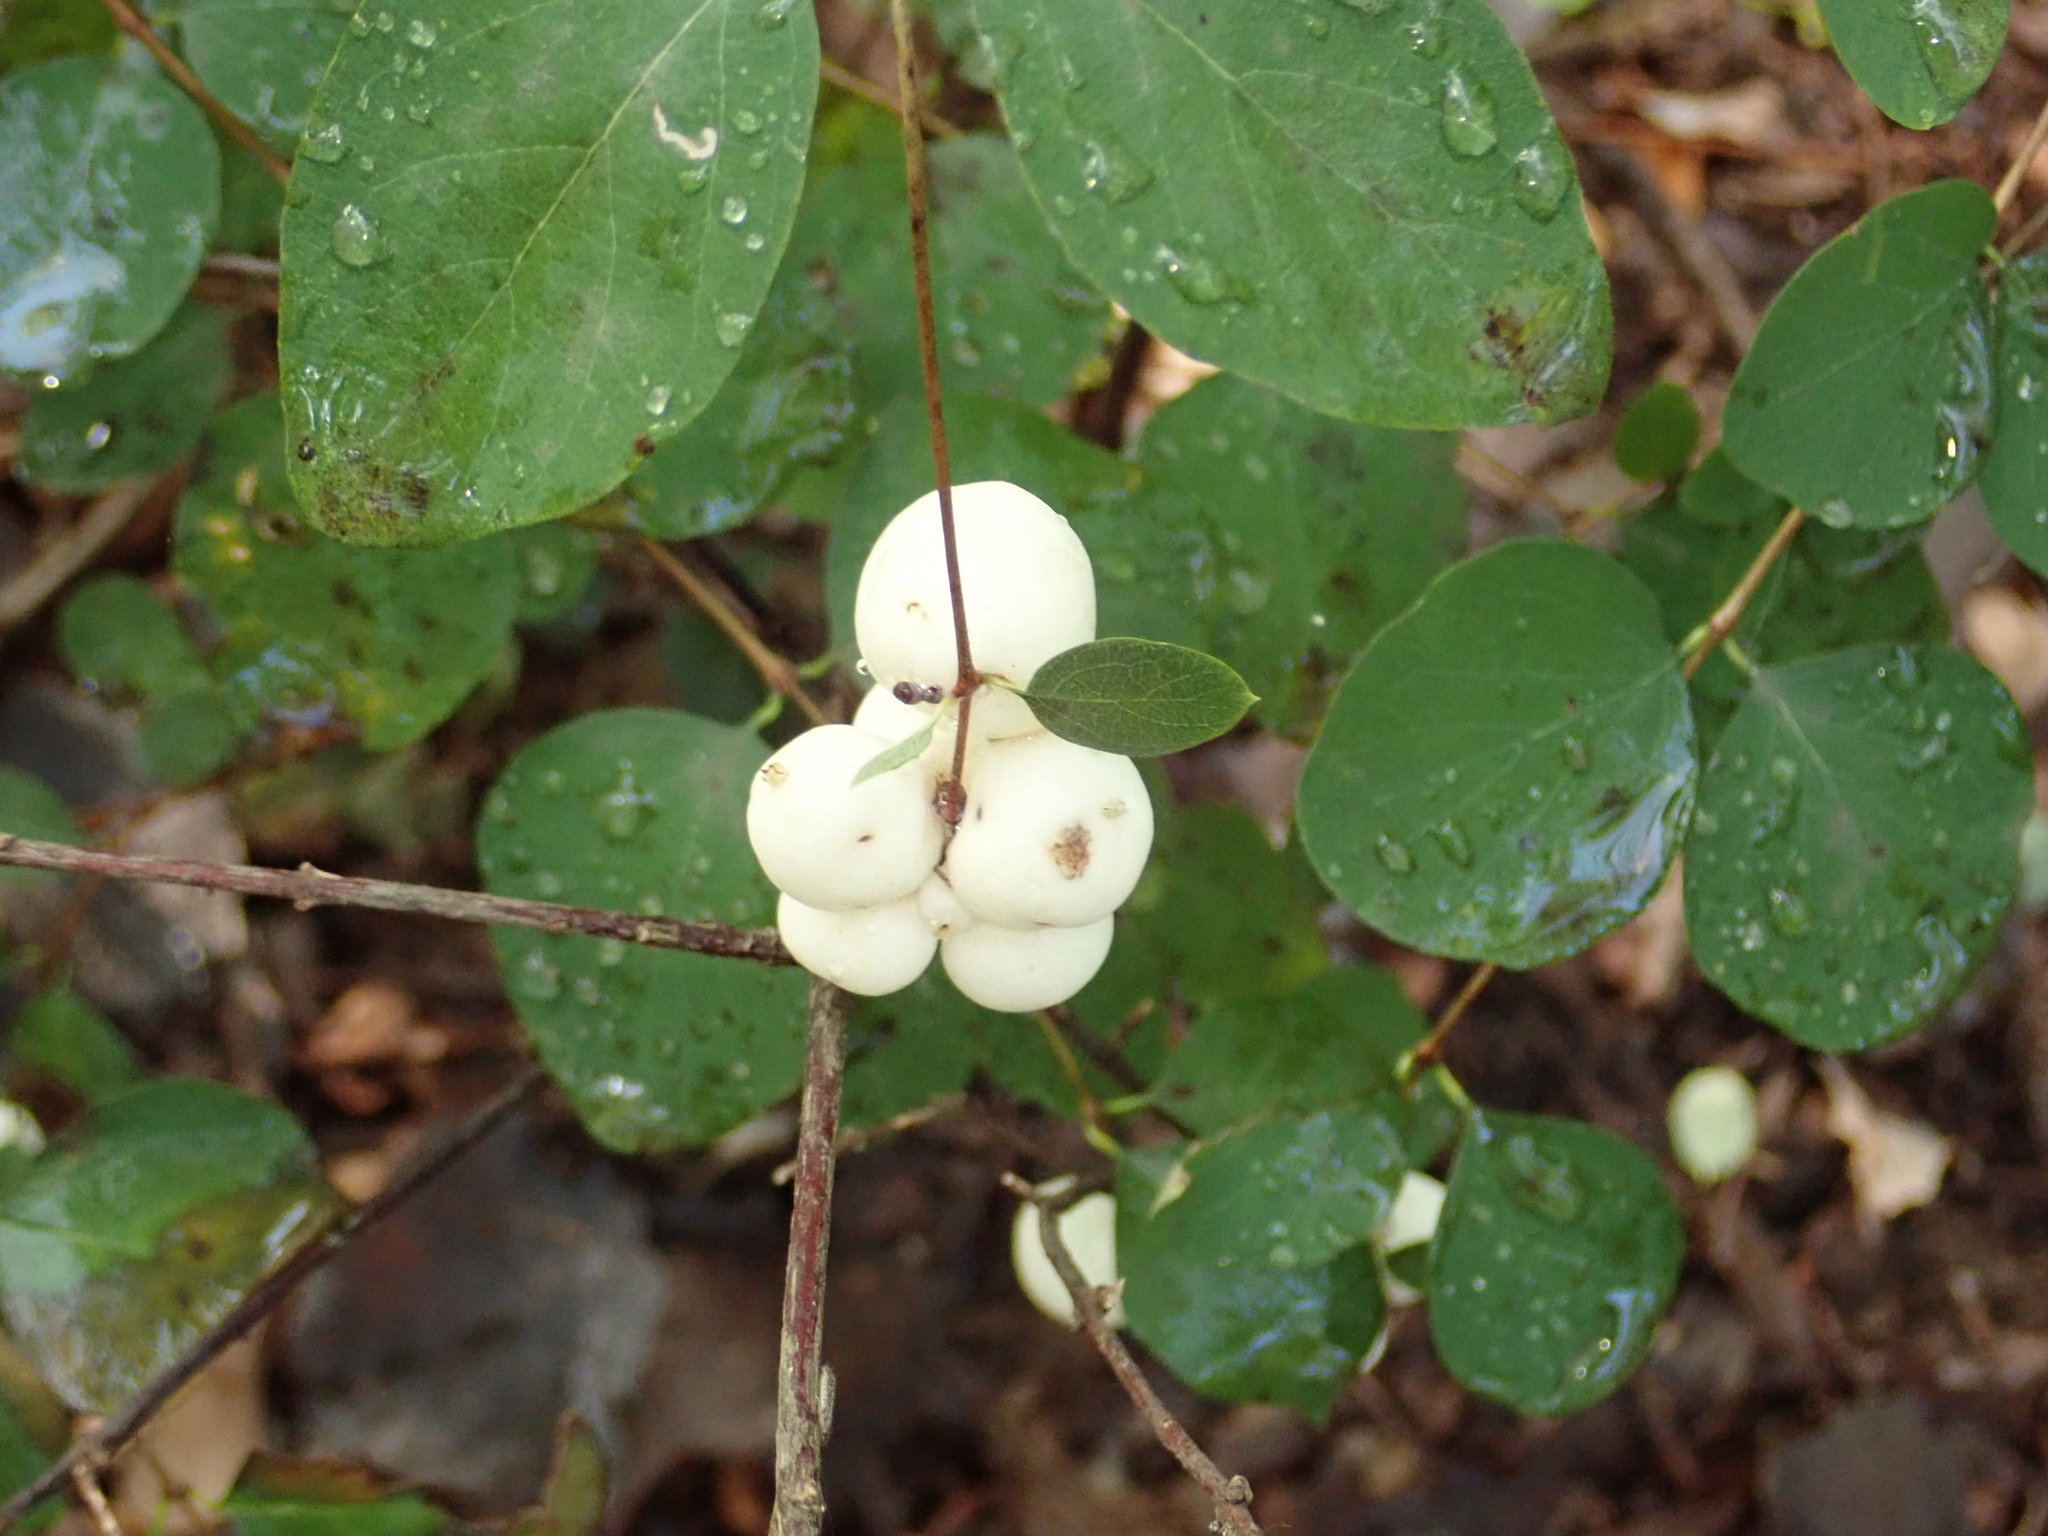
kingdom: Plantae
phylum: Tracheophyta
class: Magnoliopsida
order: Dipsacales
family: Caprifoliaceae
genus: Symphoricarpos
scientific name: Symphoricarpos albus
